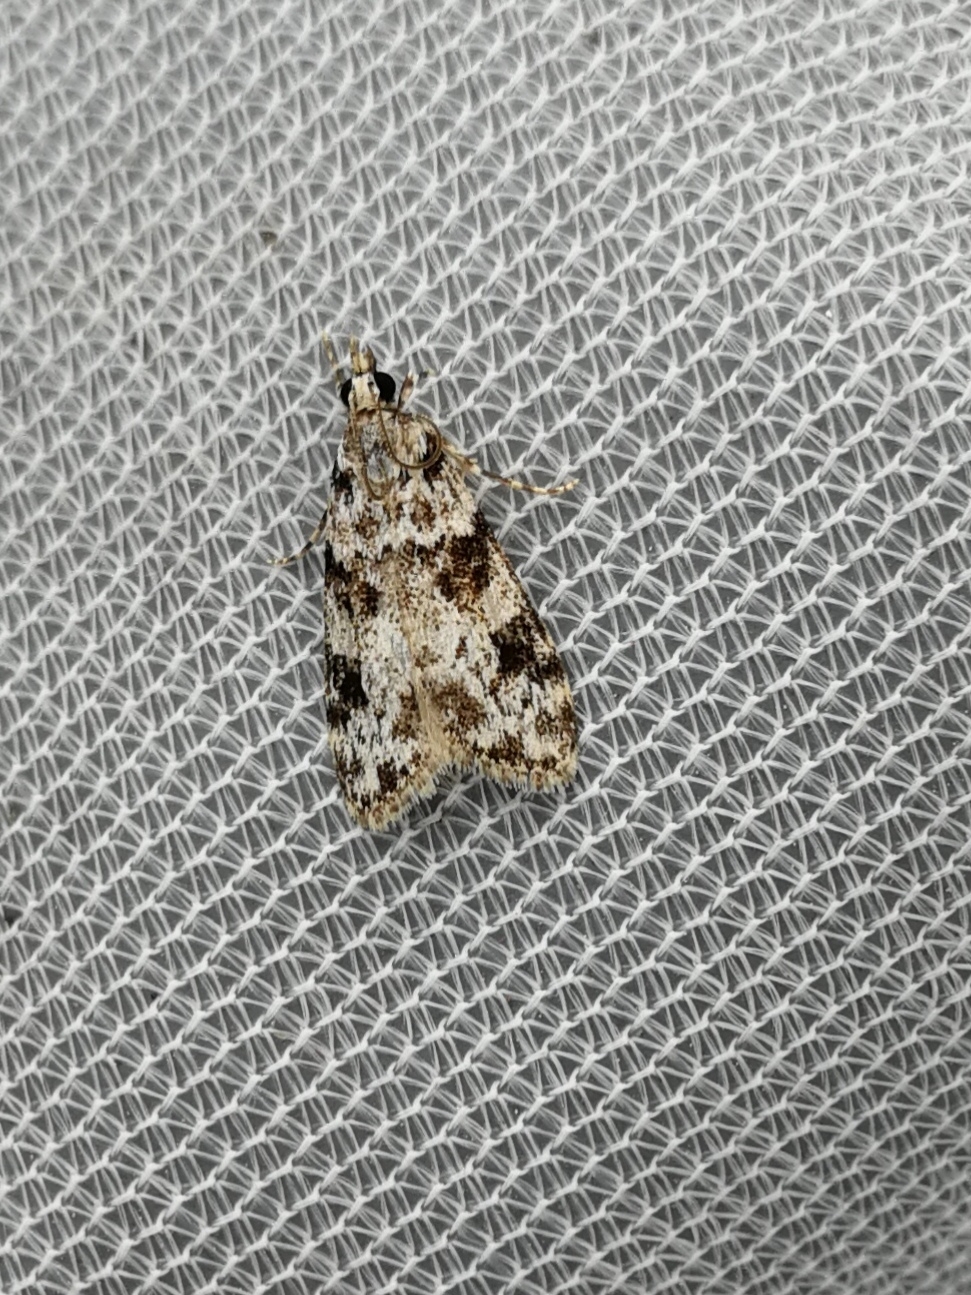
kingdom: Animalia
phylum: Arthropoda
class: Insecta
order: Lepidoptera
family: Crambidae
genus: Eudonia
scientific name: Eudonia delunella
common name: Pied grey
